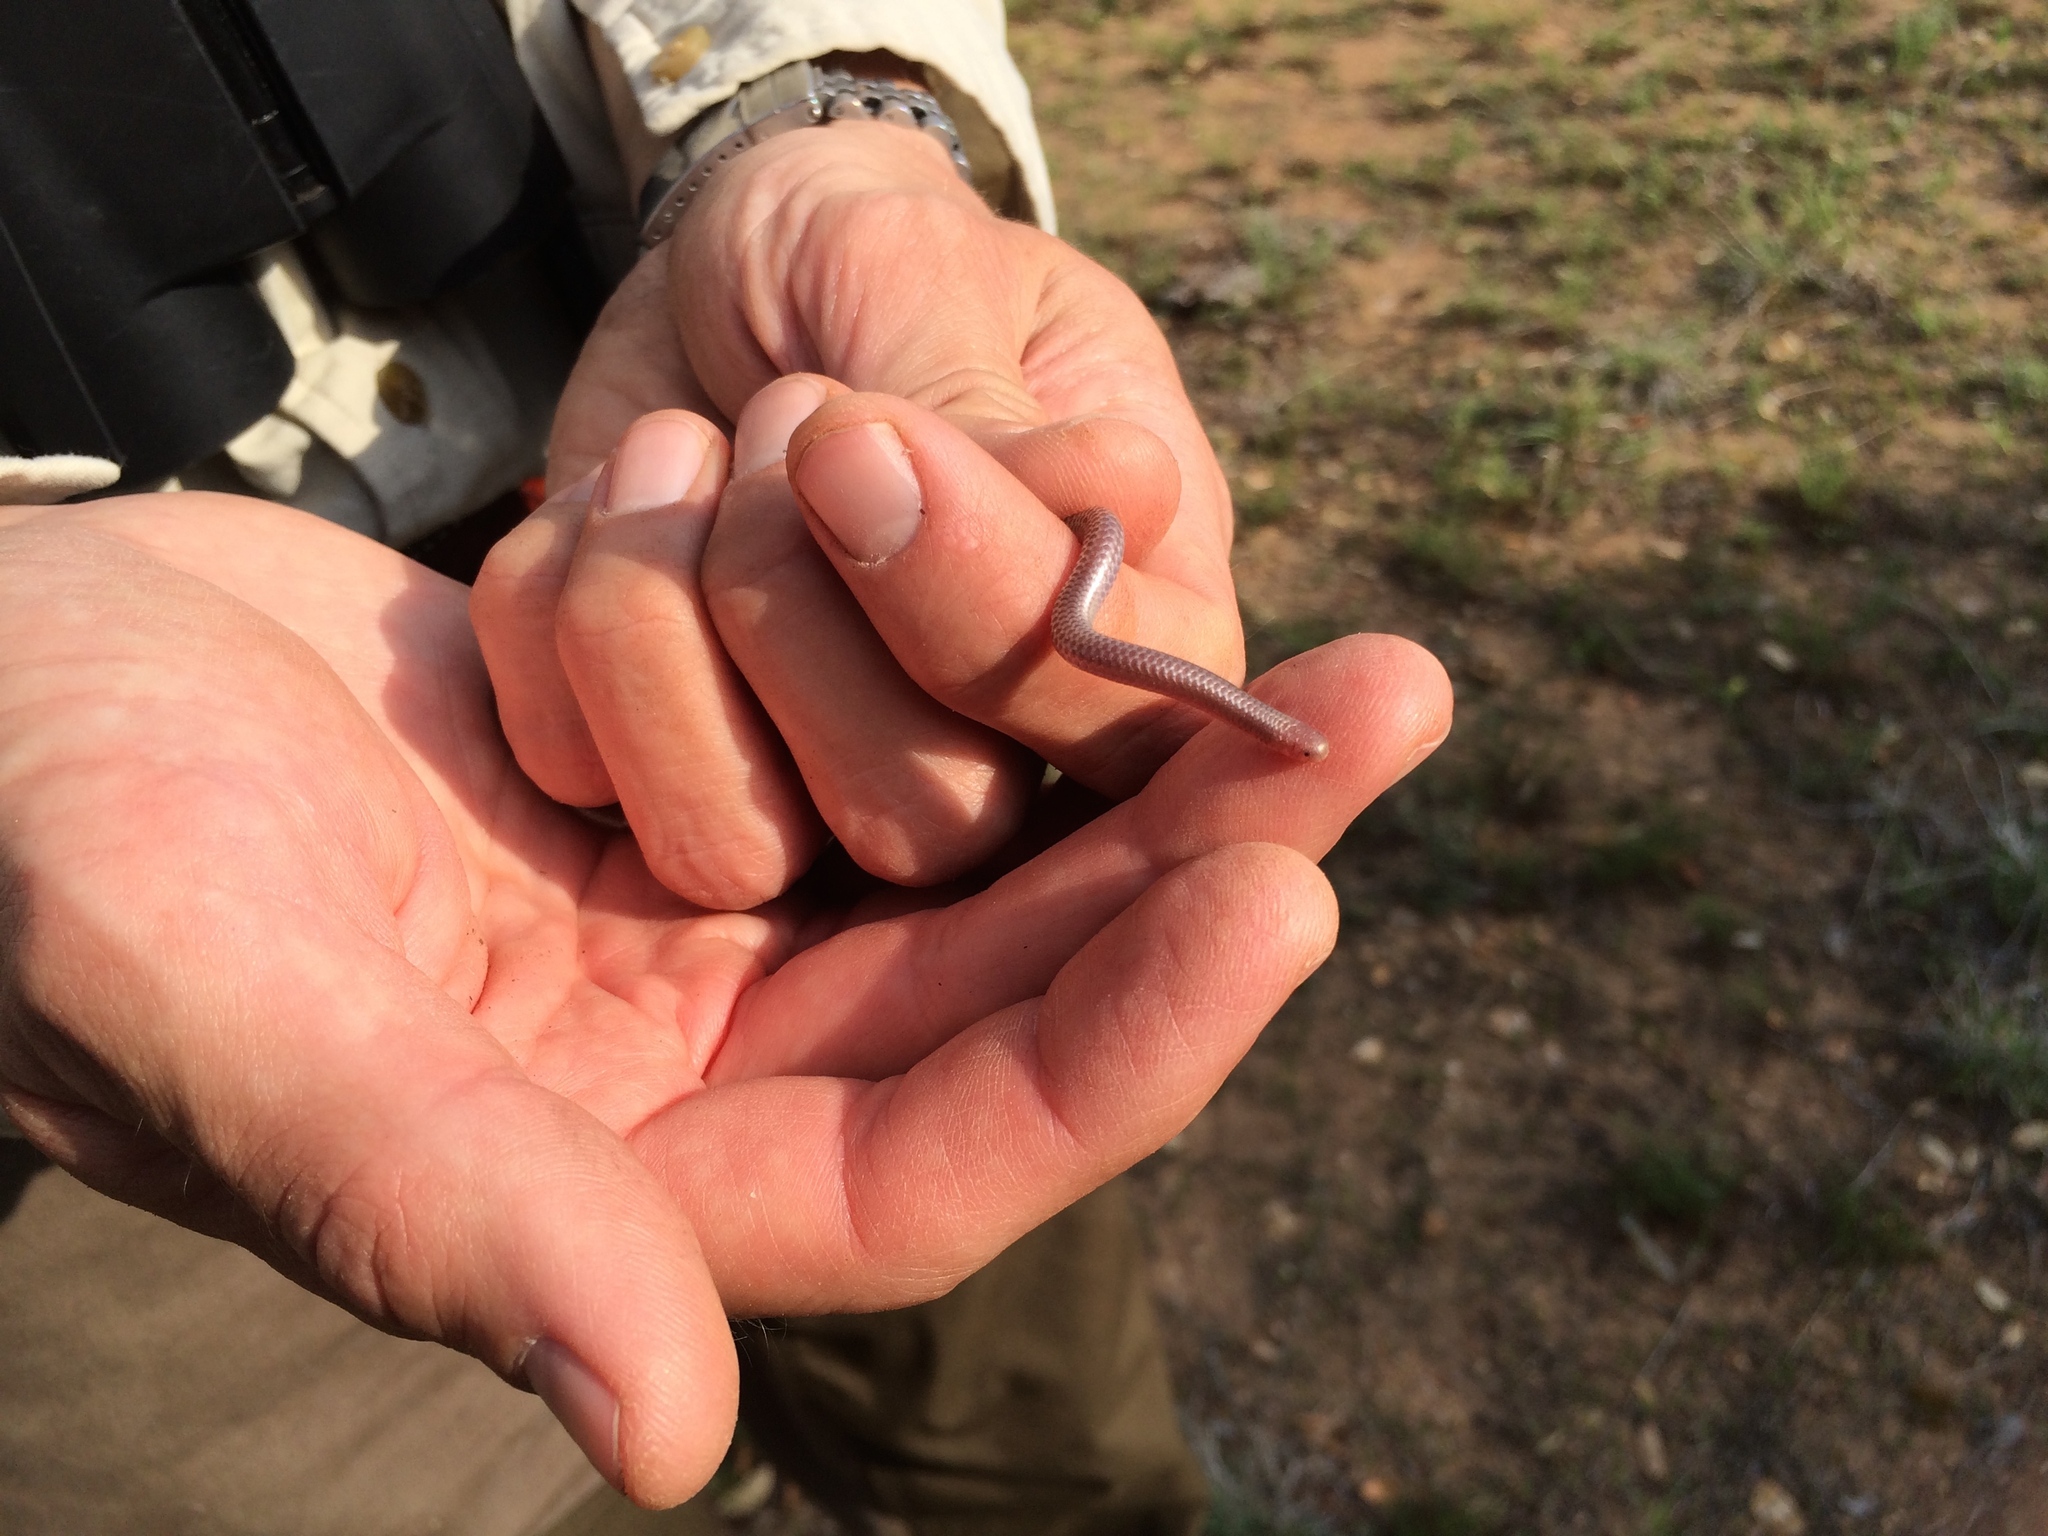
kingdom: Animalia
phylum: Chordata
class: Squamata
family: Leptotyphlopidae
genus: Rena
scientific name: Rena dulcis
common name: Texas blind snake
